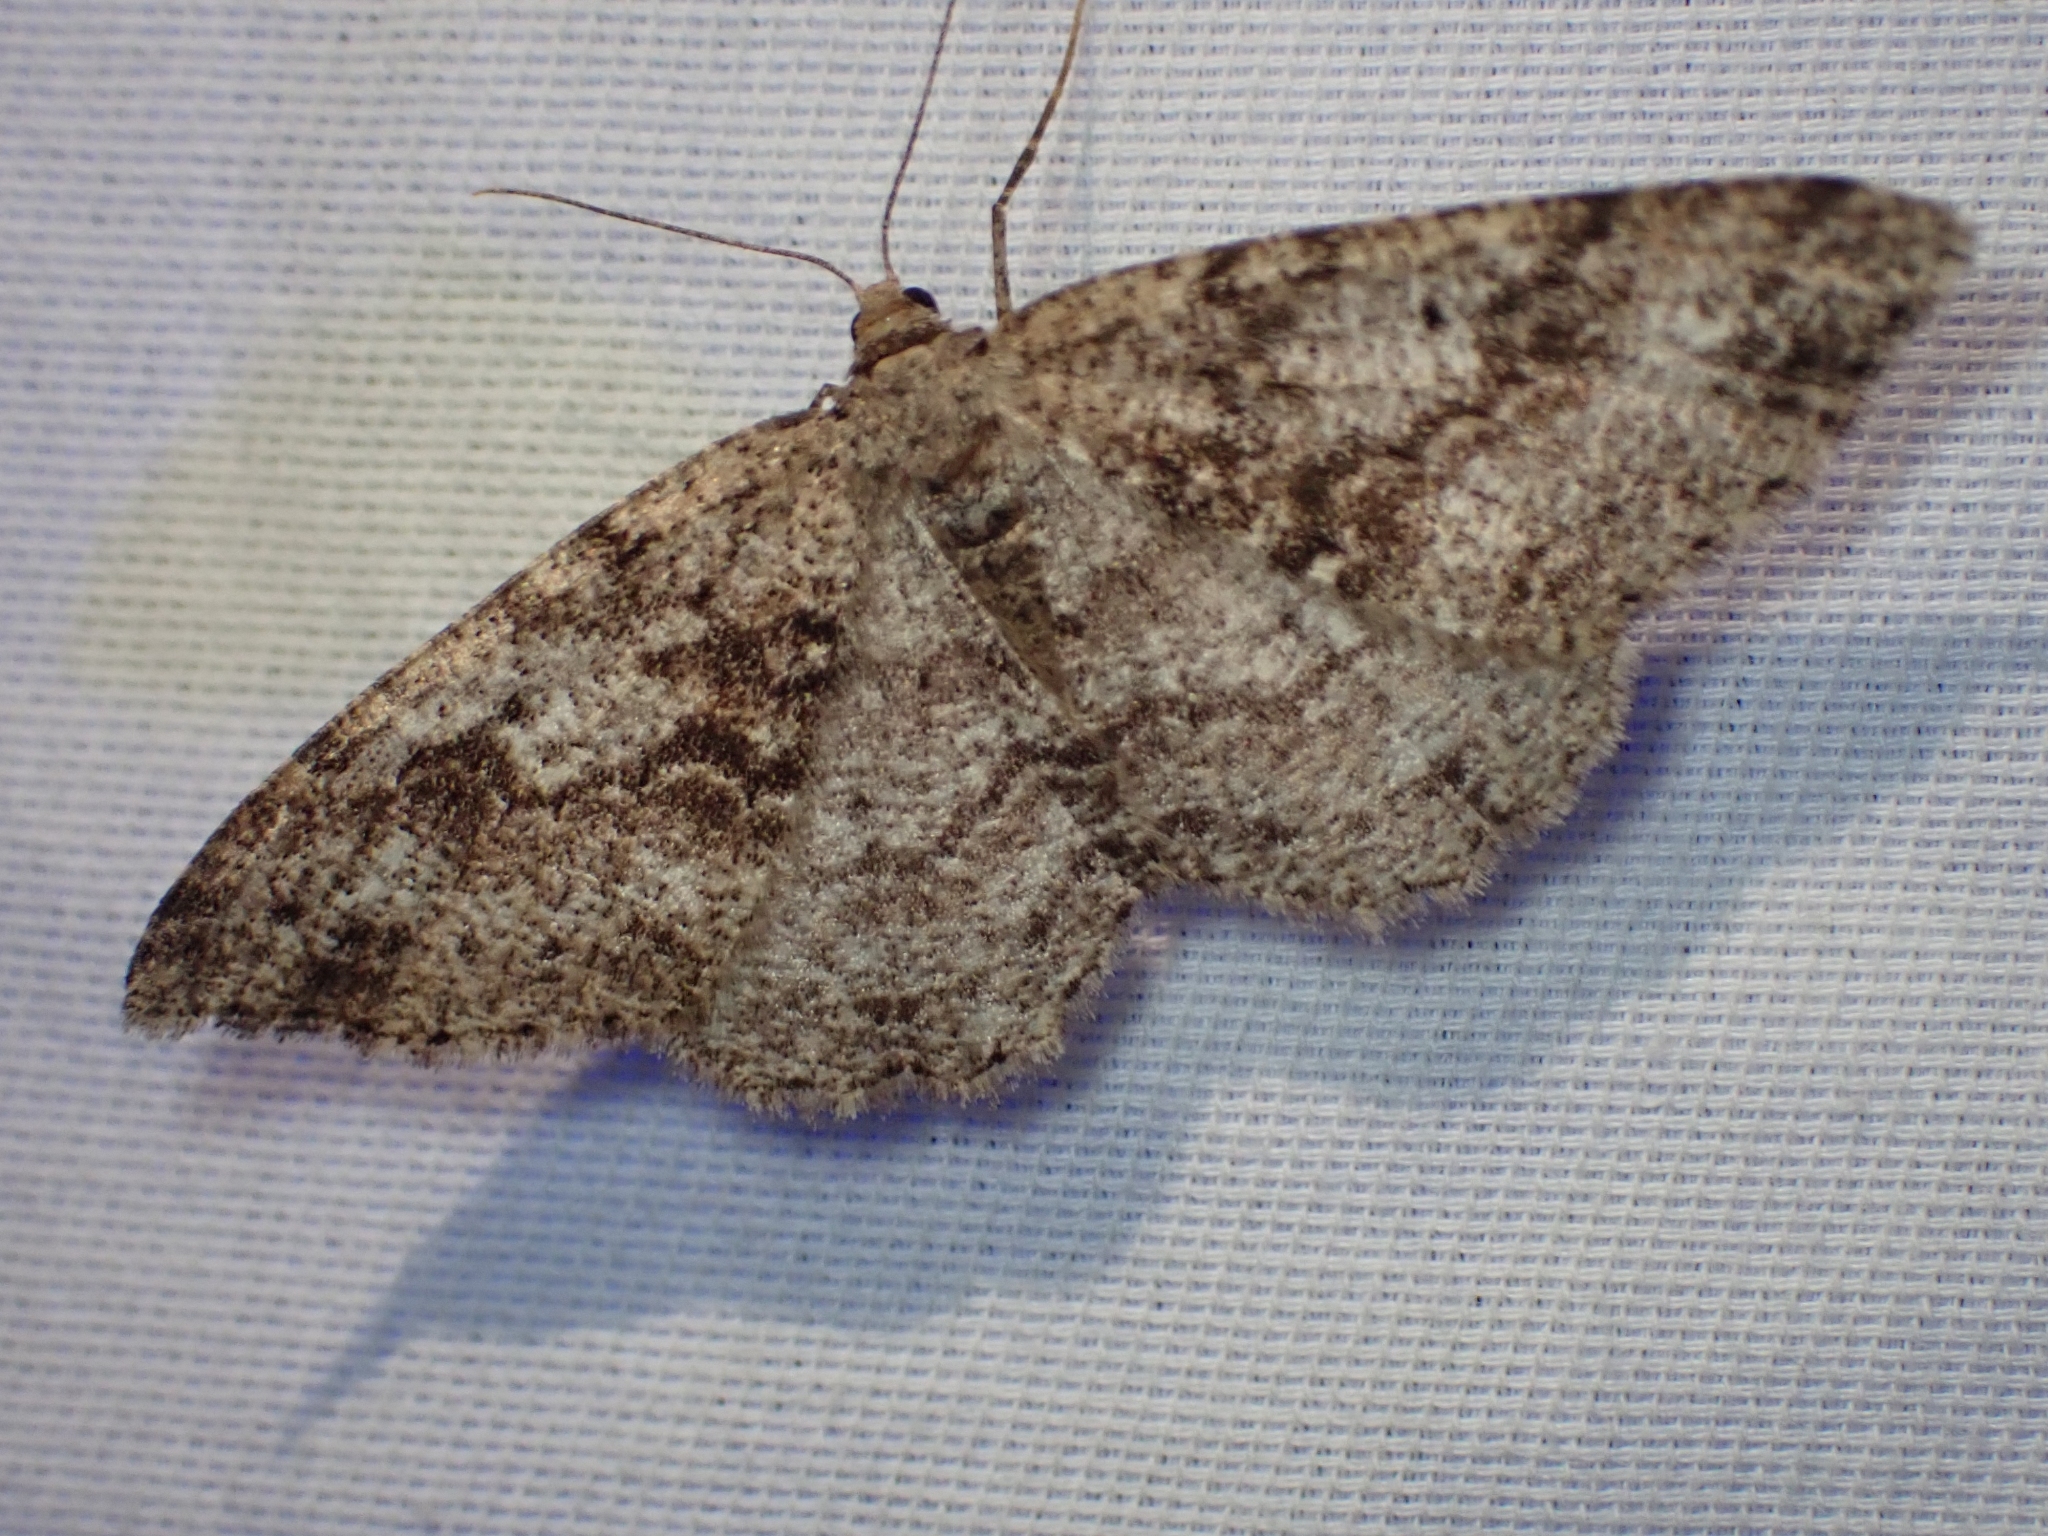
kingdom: Animalia
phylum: Arthropoda
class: Insecta
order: Lepidoptera
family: Geometridae
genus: Melanolophia
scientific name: Melanolophia imitata
